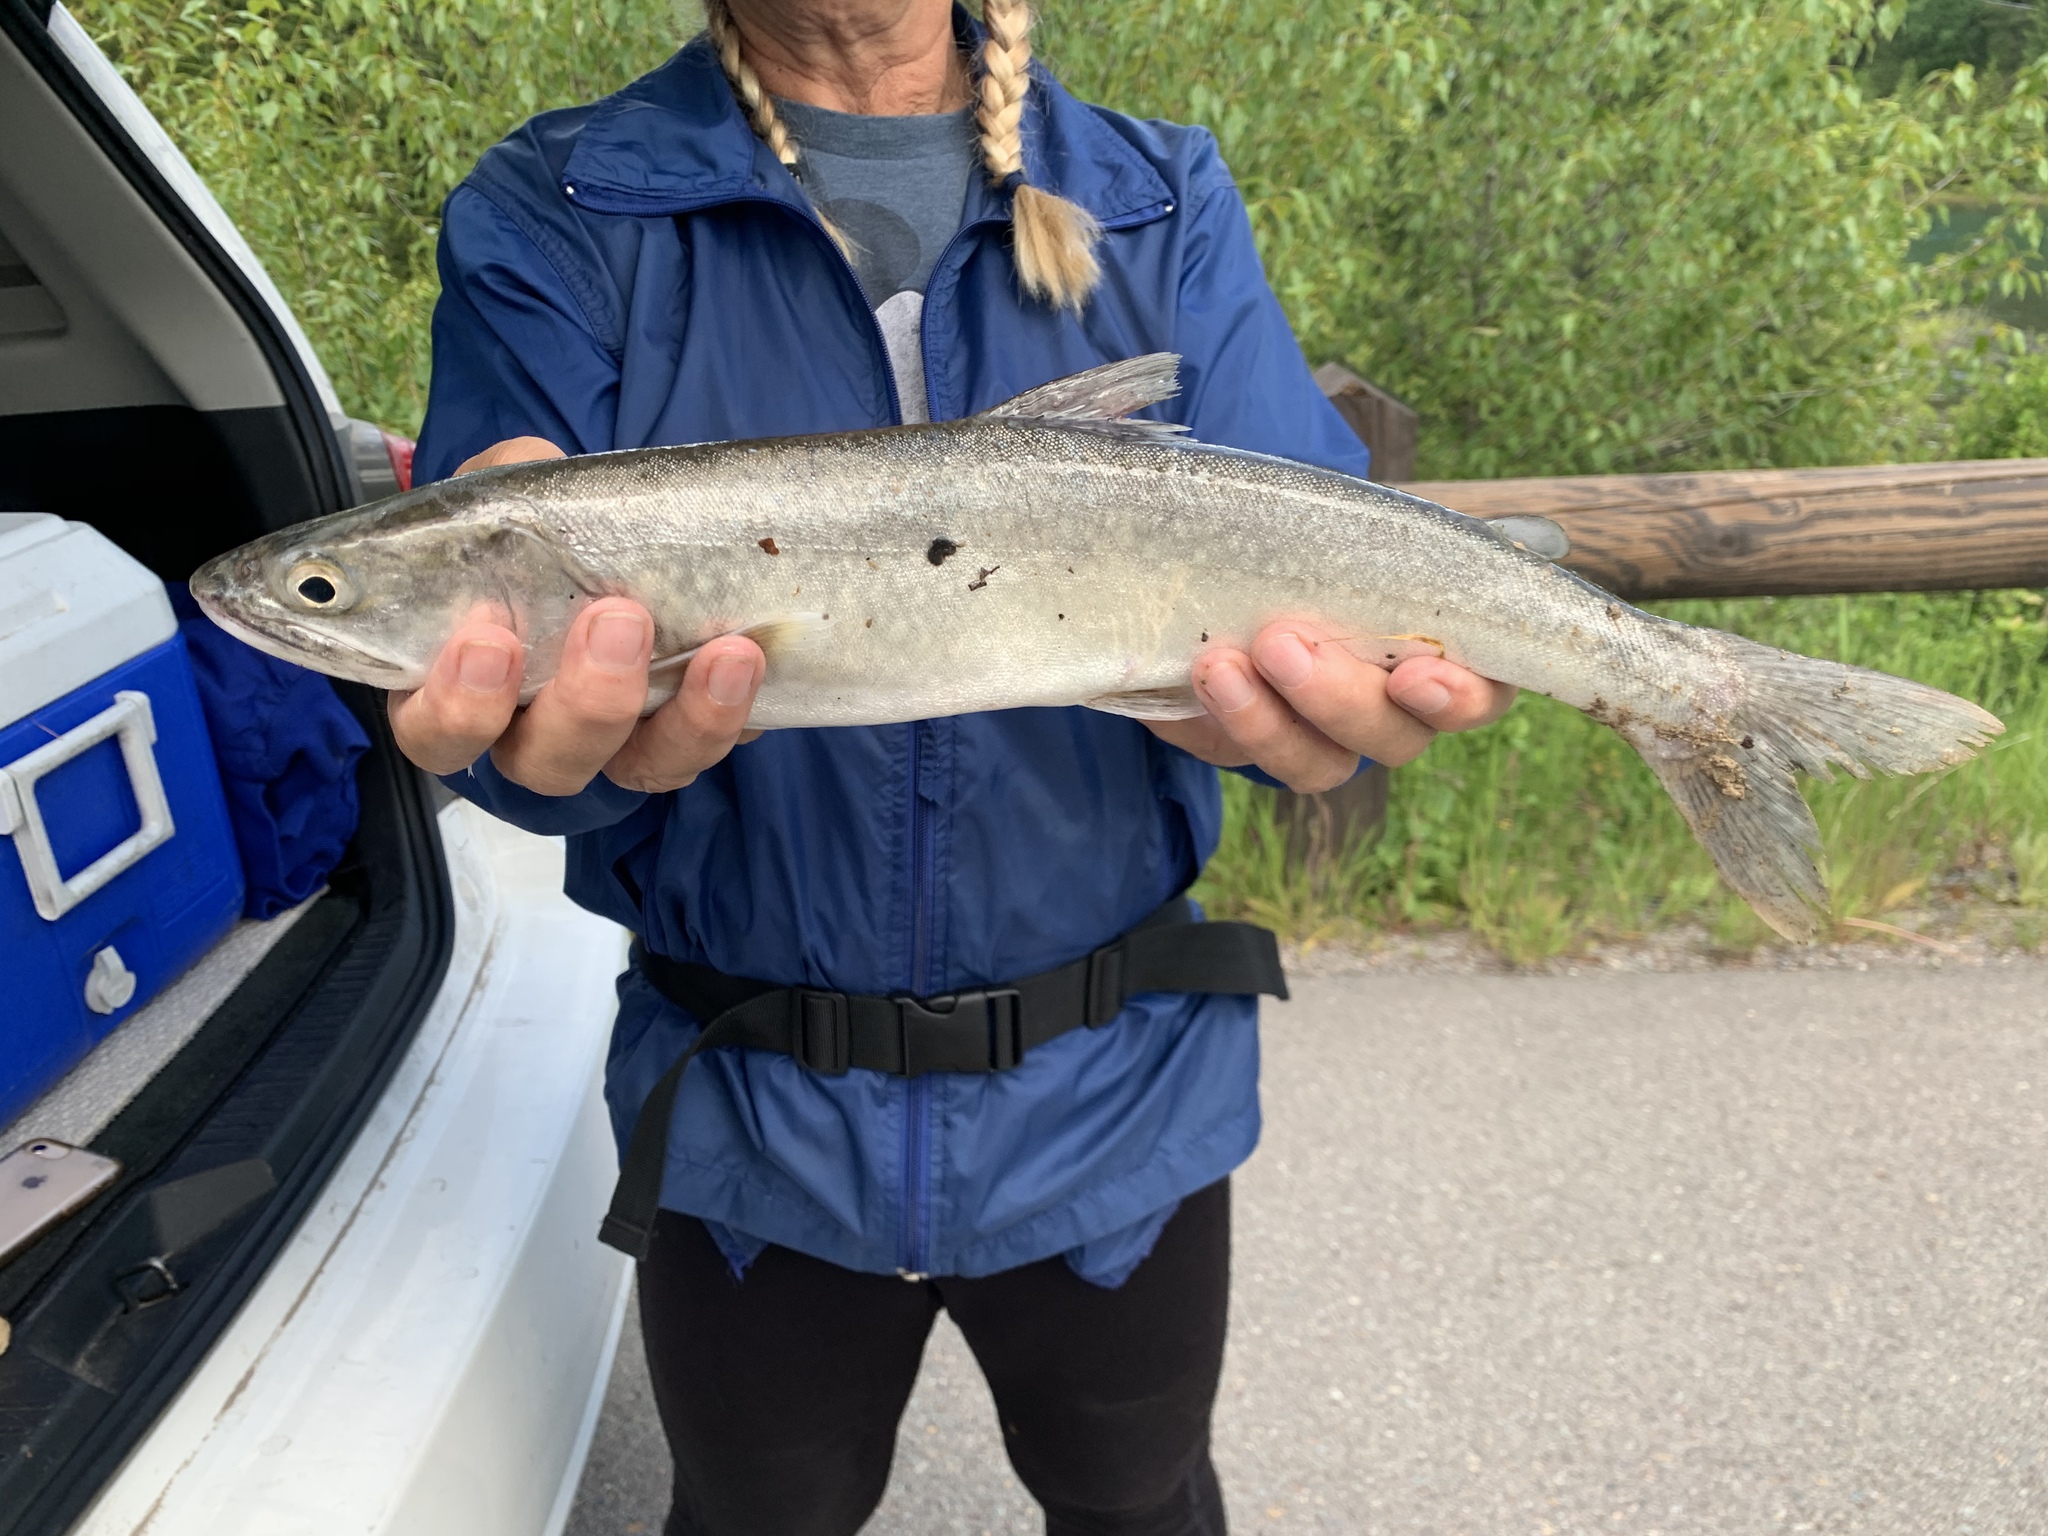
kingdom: Animalia
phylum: Chordata
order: Salmoniformes
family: Salmonidae
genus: Salvelinus
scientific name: Salvelinus namaycush
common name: American lake charr
